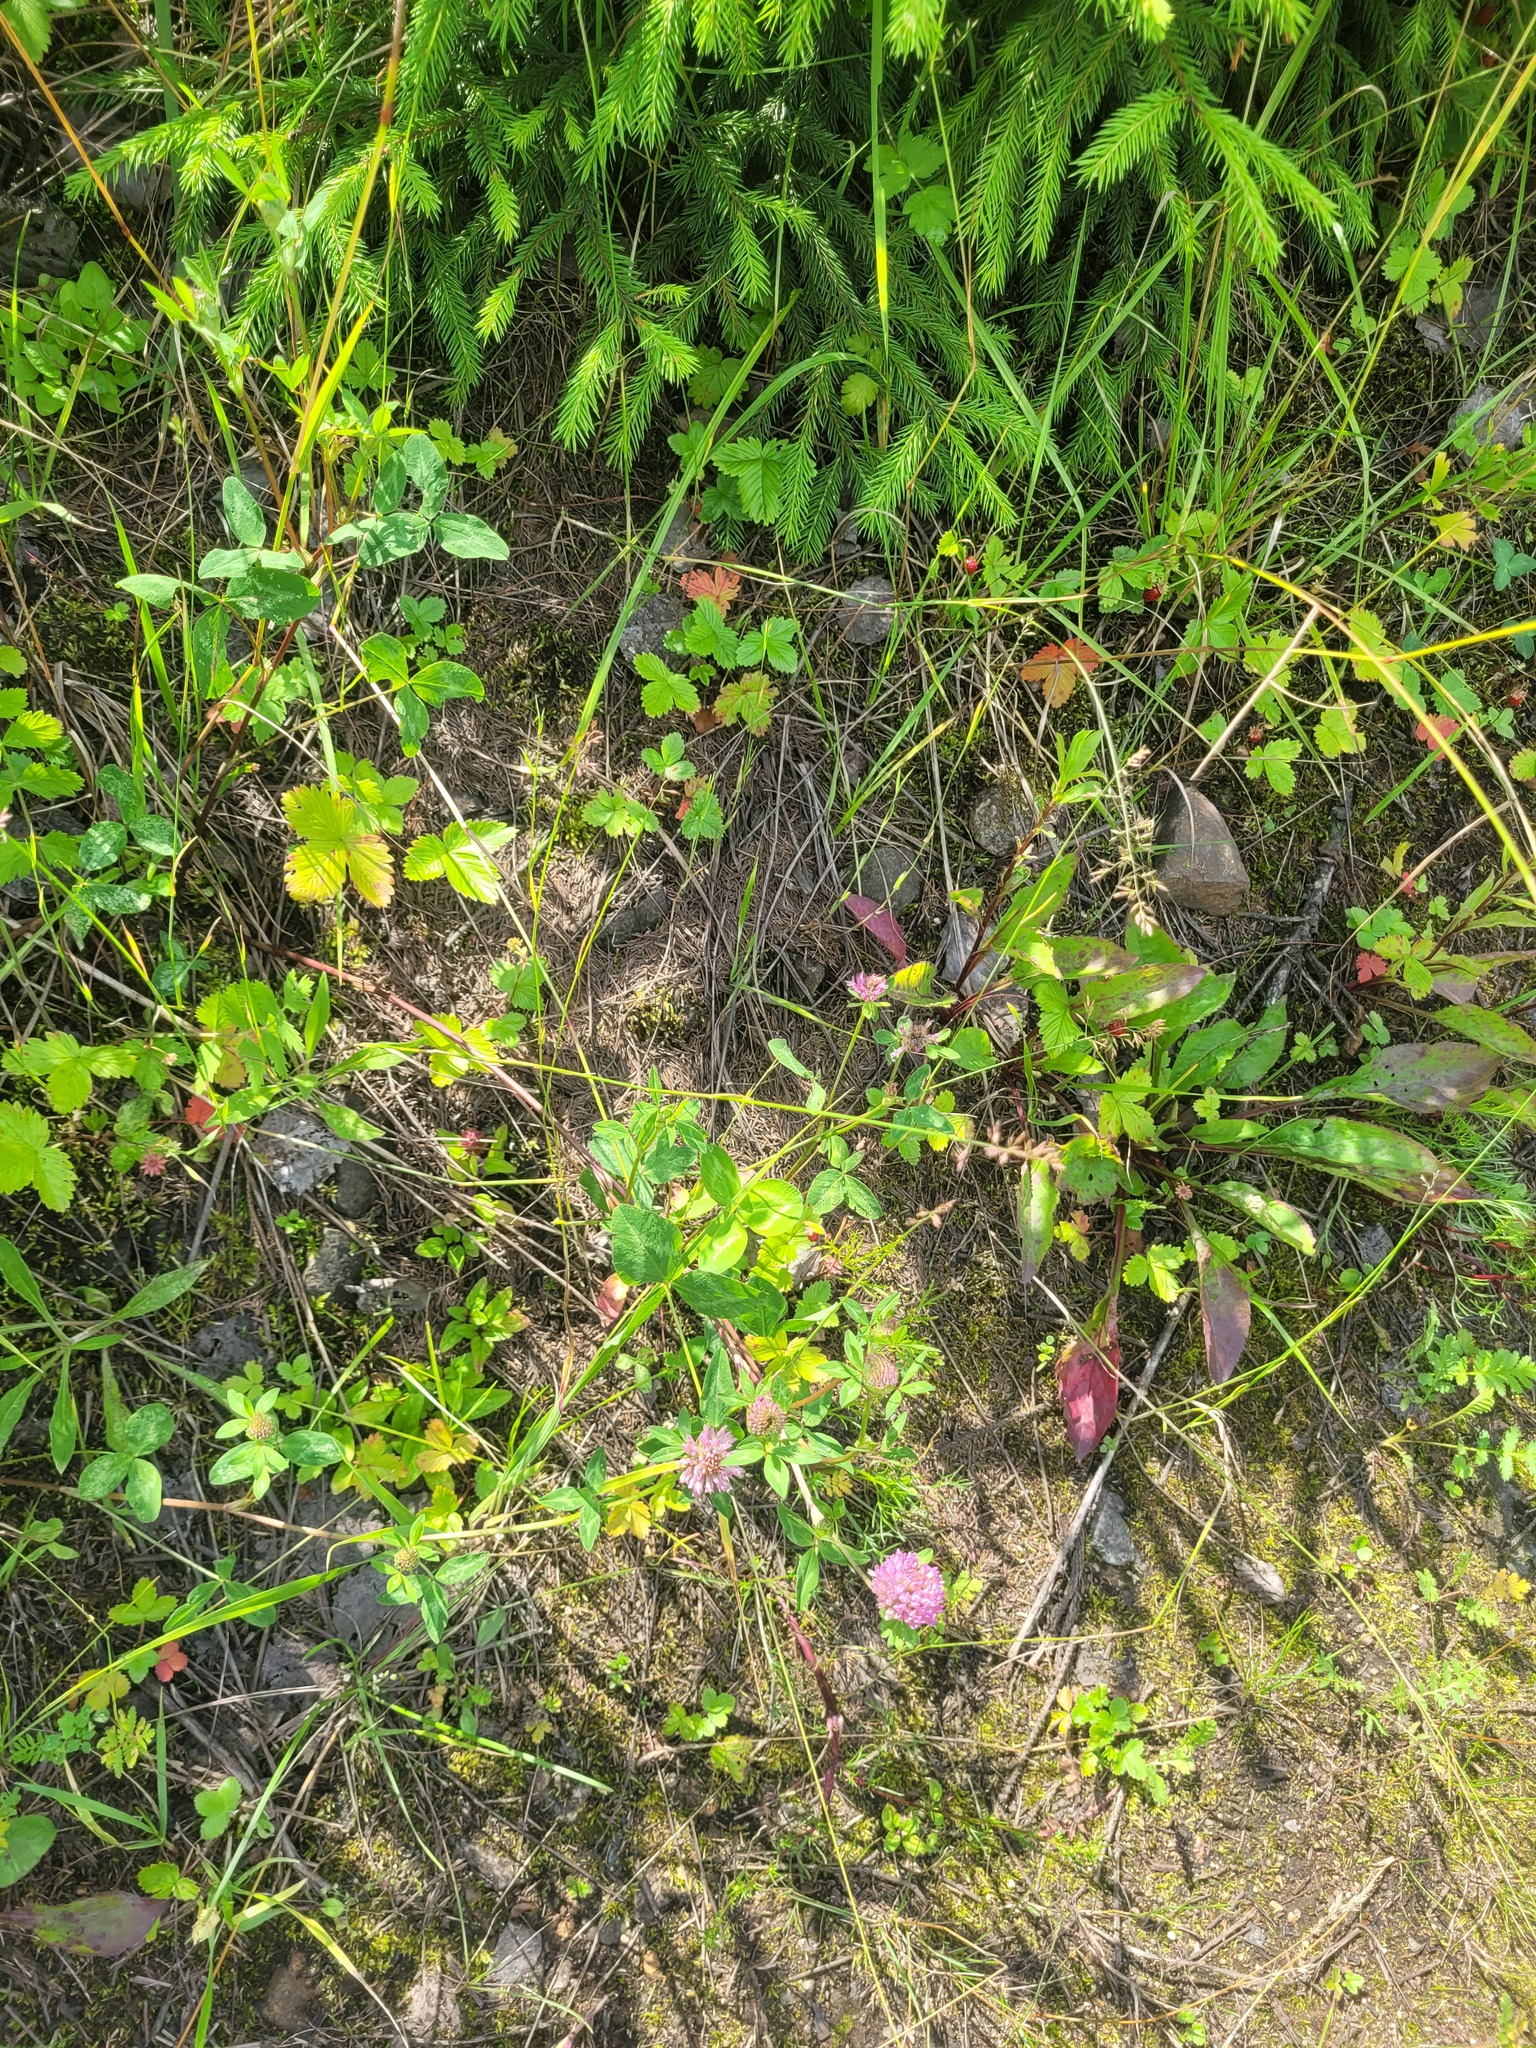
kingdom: Plantae
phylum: Tracheophyta
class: Magnoliopsida
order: Fabales
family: Fabaceae
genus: Trifolium
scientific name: Trifolium pratense
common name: Red clover
